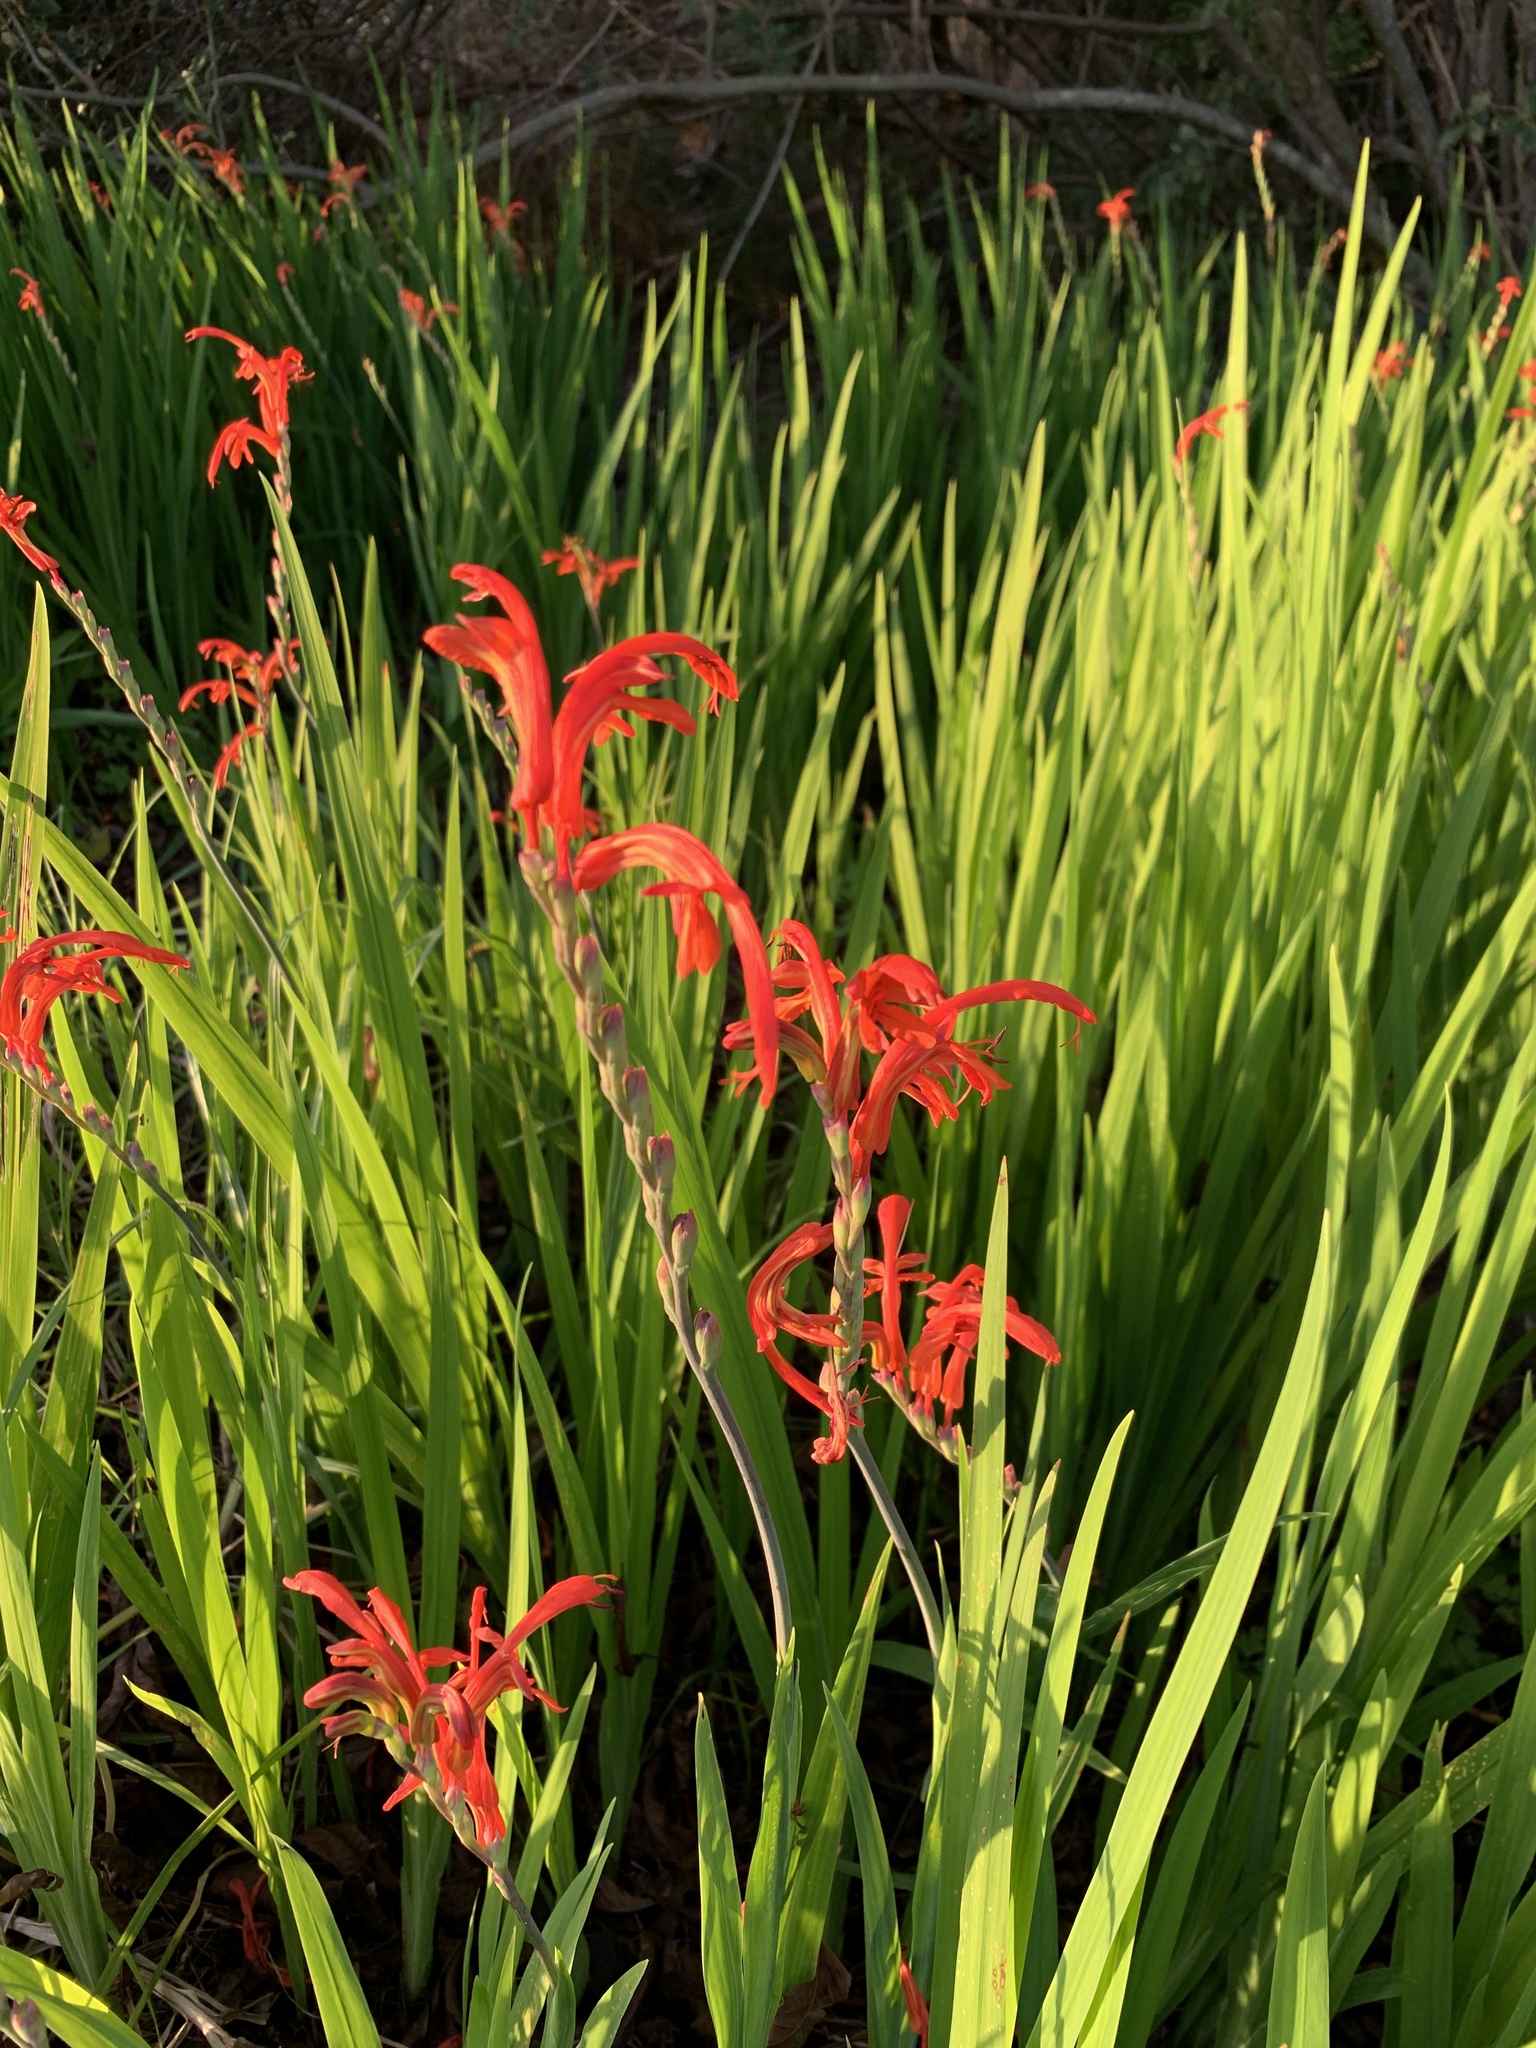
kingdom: Plantae
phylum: Tracheophyta
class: Liliopsida
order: Asparagales
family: Iridaceae
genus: Chasmanthe
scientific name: Chasmanthe aethiopica
